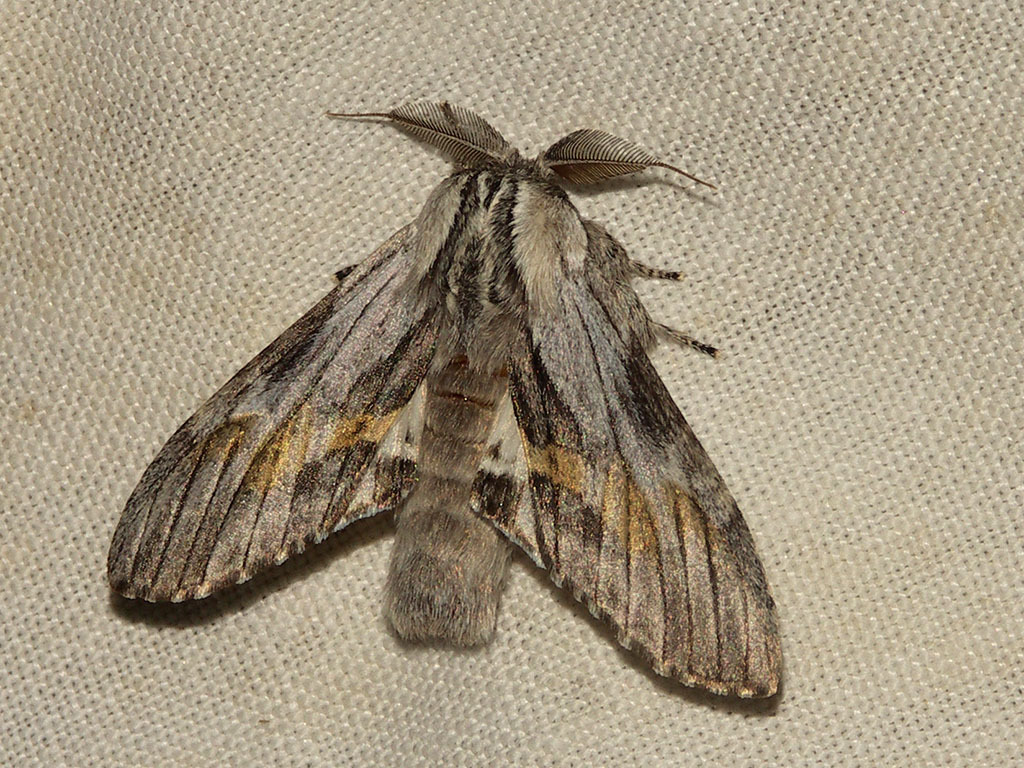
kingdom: Animalia
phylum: Arthropoda
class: Insecta
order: Lepidoptera
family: Notodontidae
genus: Harpyia
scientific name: Harpyia milhauseri
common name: Tawny prominent
